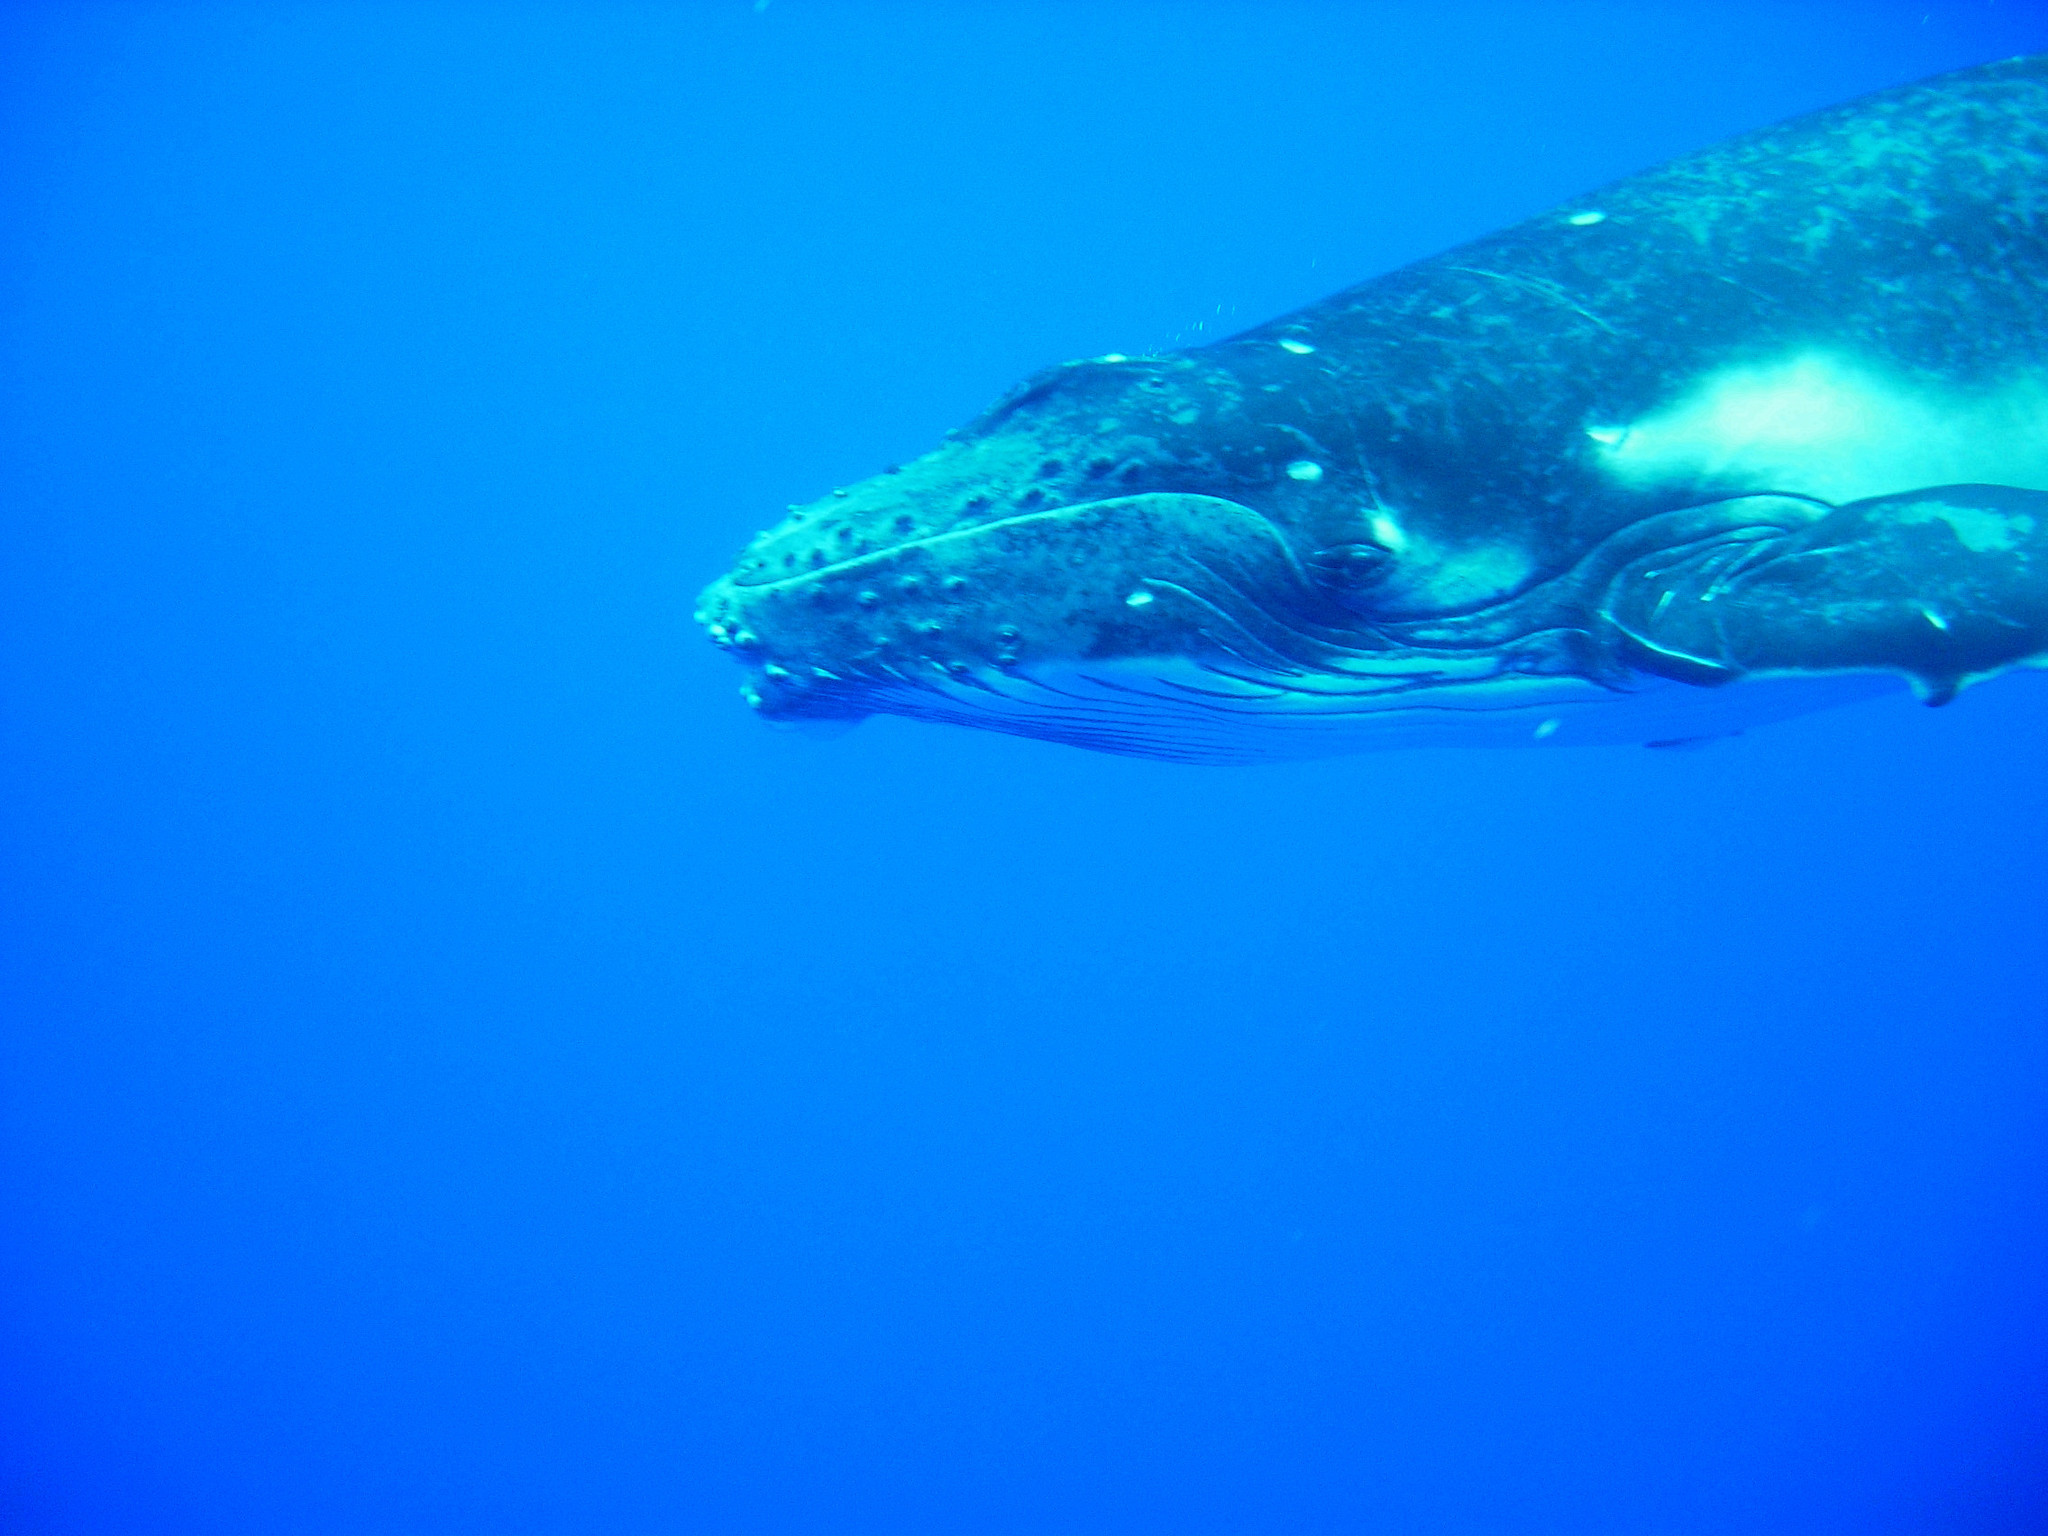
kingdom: Animalia
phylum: Chordata
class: Mammalia
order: Cetacea
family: Balaenopteridae
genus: Megaptera
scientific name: Megaptera novaeangliae
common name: Humpback whale
